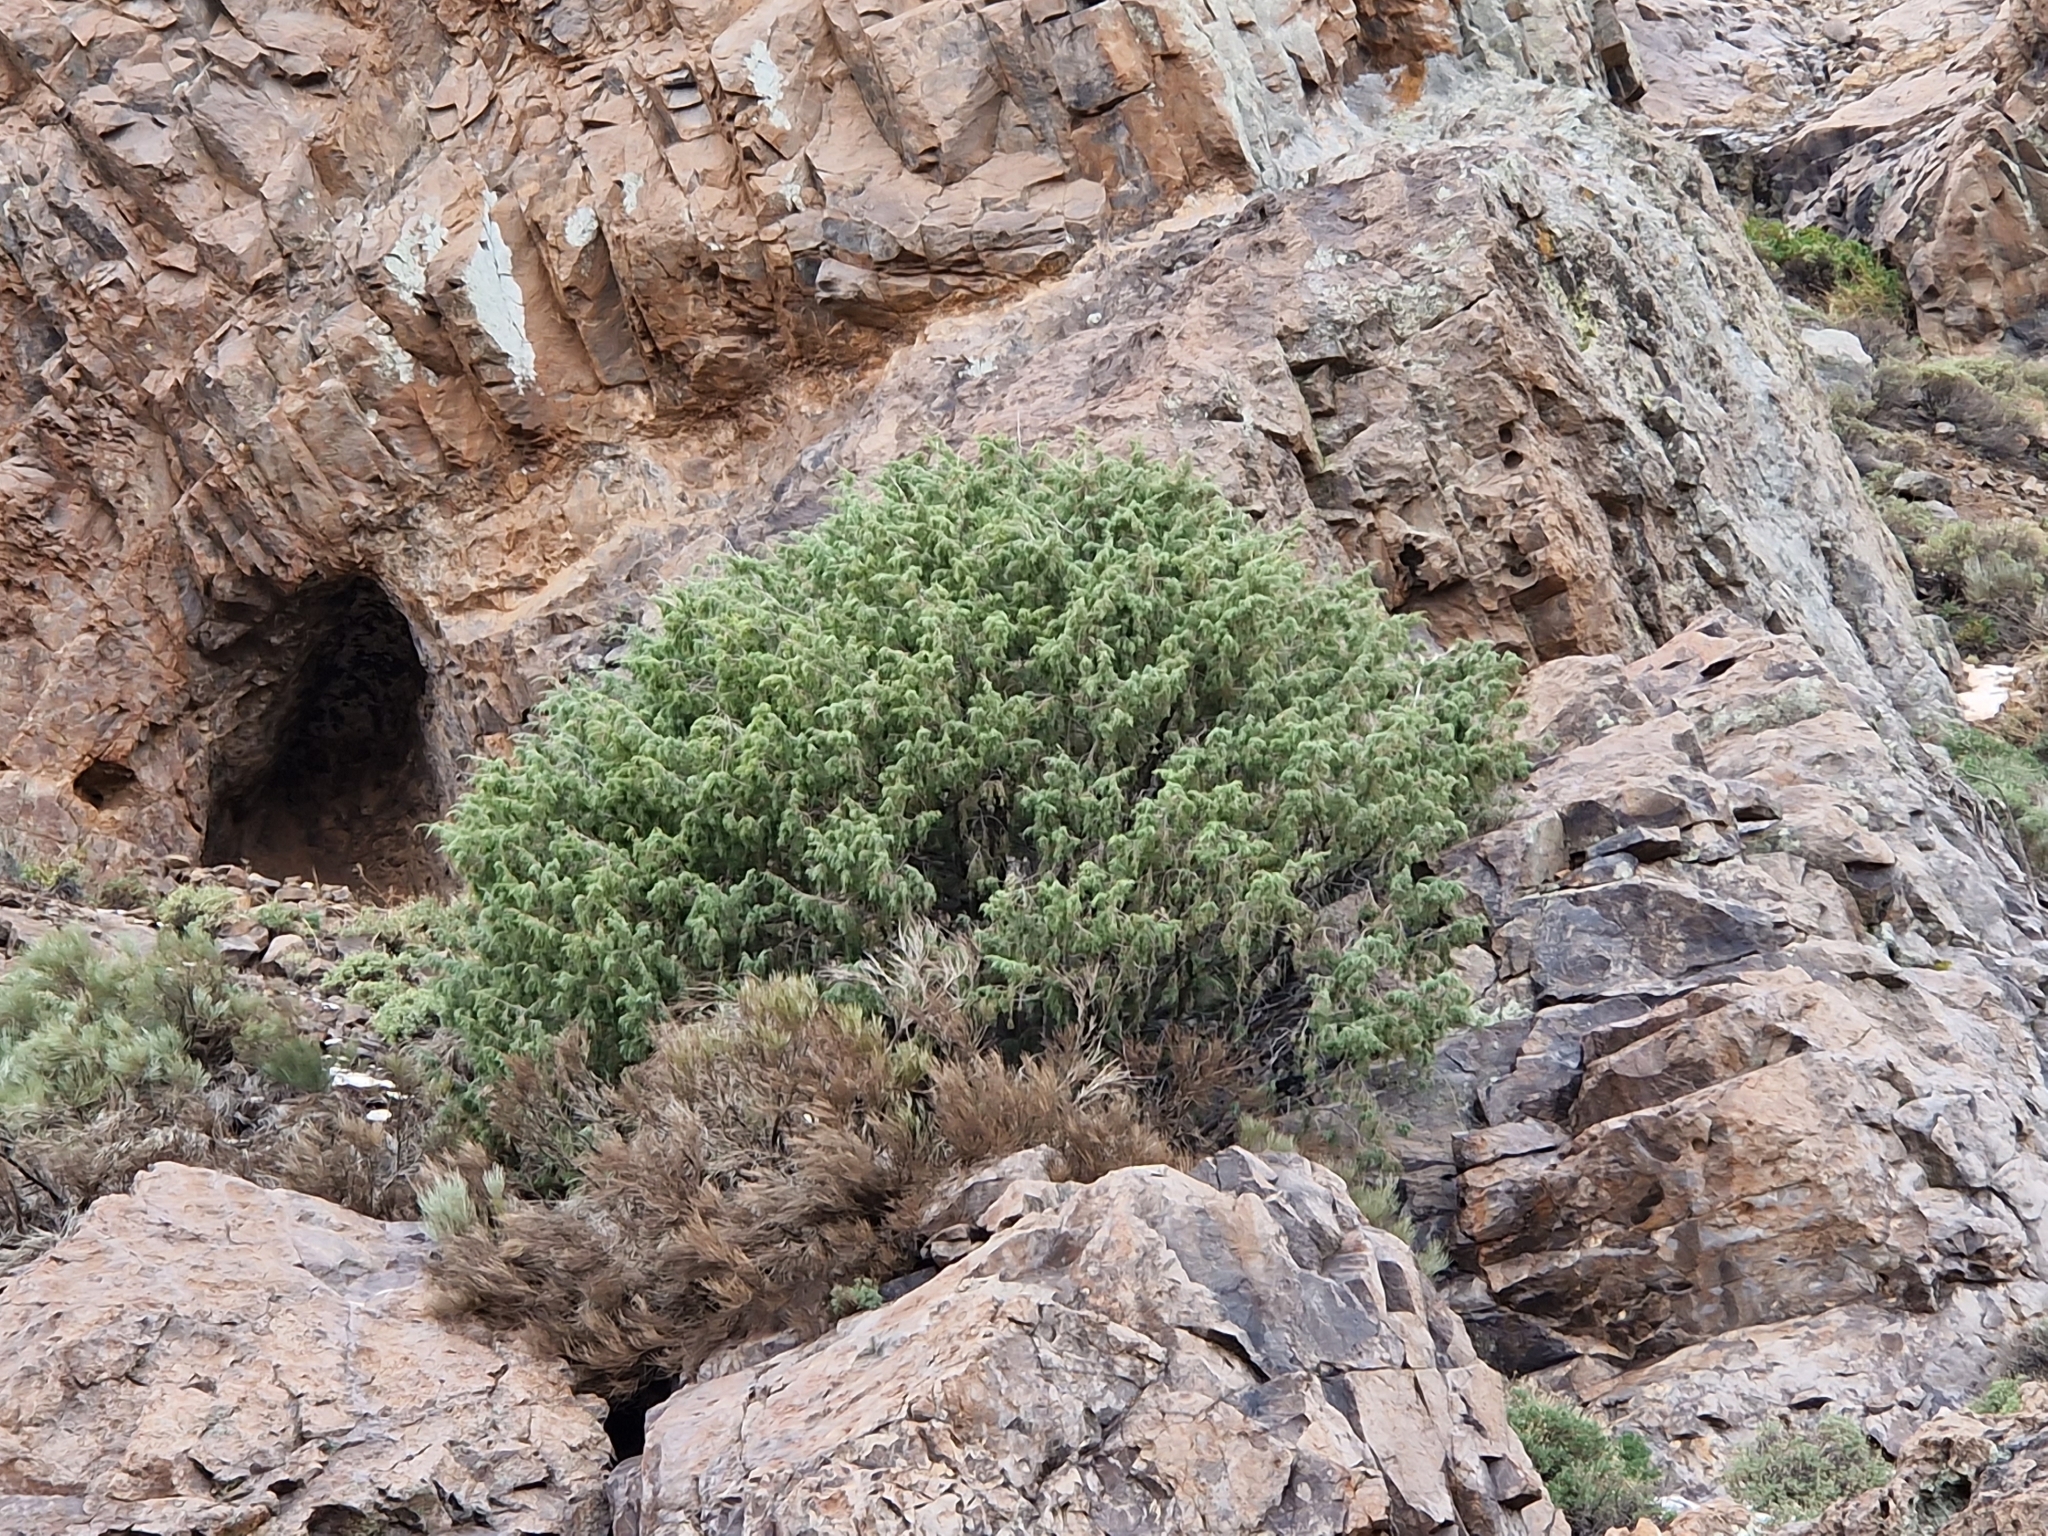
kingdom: Plantae
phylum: Tracheophyta
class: Pinopsida
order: Pinales
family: Cupressaceae
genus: Juniperus
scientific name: Juniperus cedrus
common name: Canary islands juniper
